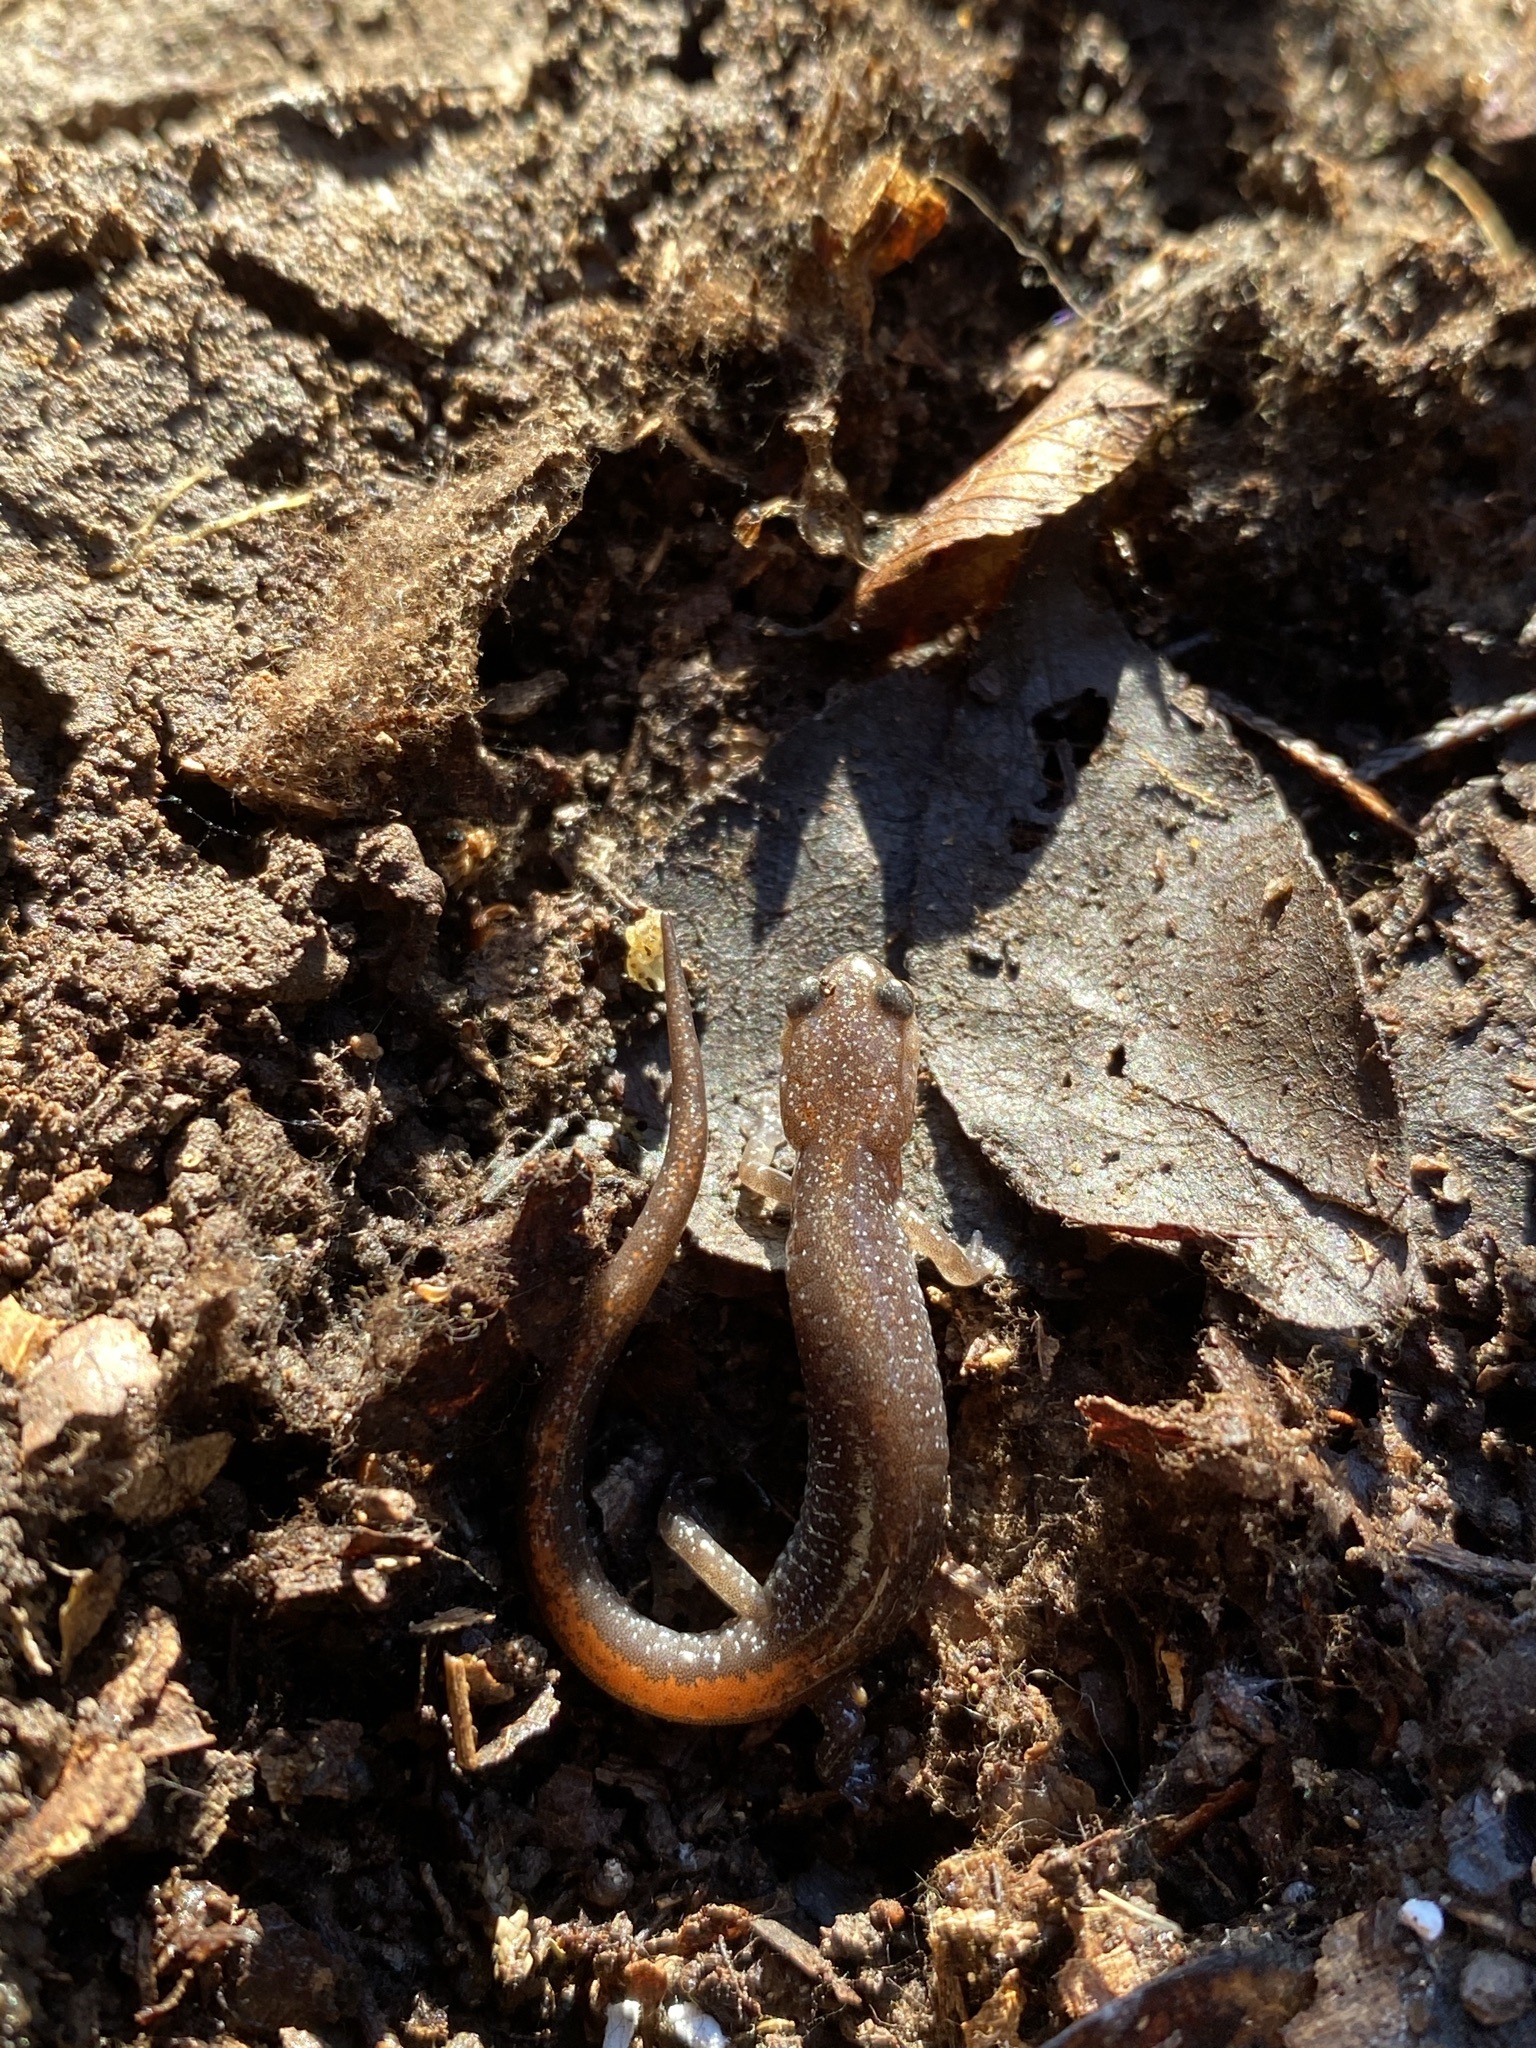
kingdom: Animalia
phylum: Chordata
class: Amphibia
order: Caudata
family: Plethodontidae
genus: Plethodon
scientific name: Plethodon angusticlavius
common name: Ozark zigzag salamander
